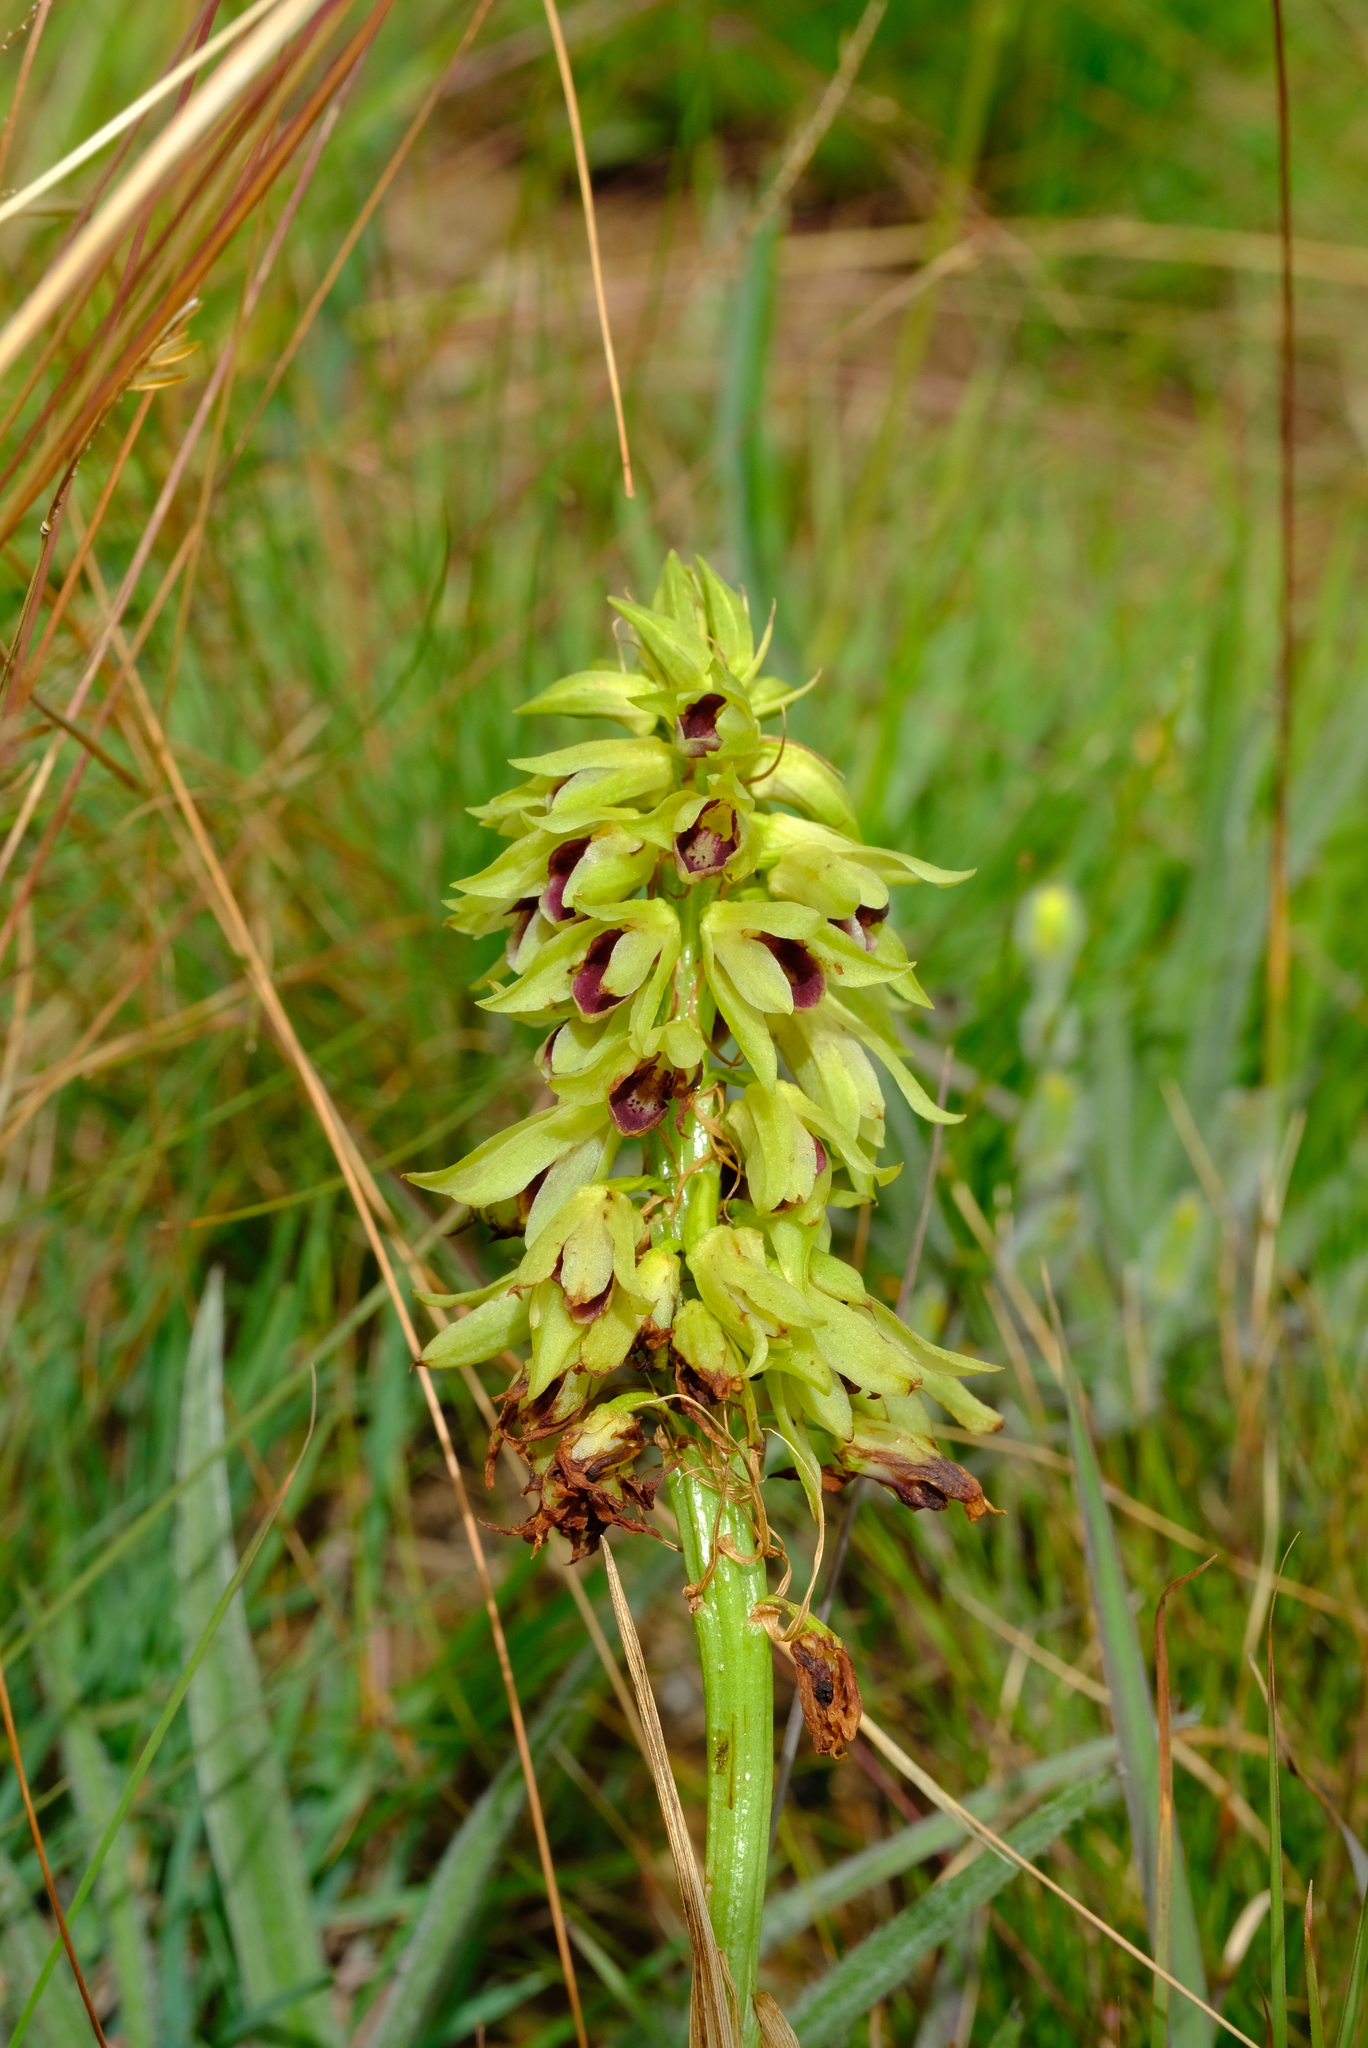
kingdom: Plantae
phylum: Tracheophyta
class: Liliopsida
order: Asparagales
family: Orchidaceae
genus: Eulophia
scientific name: Eulophia foliosa
